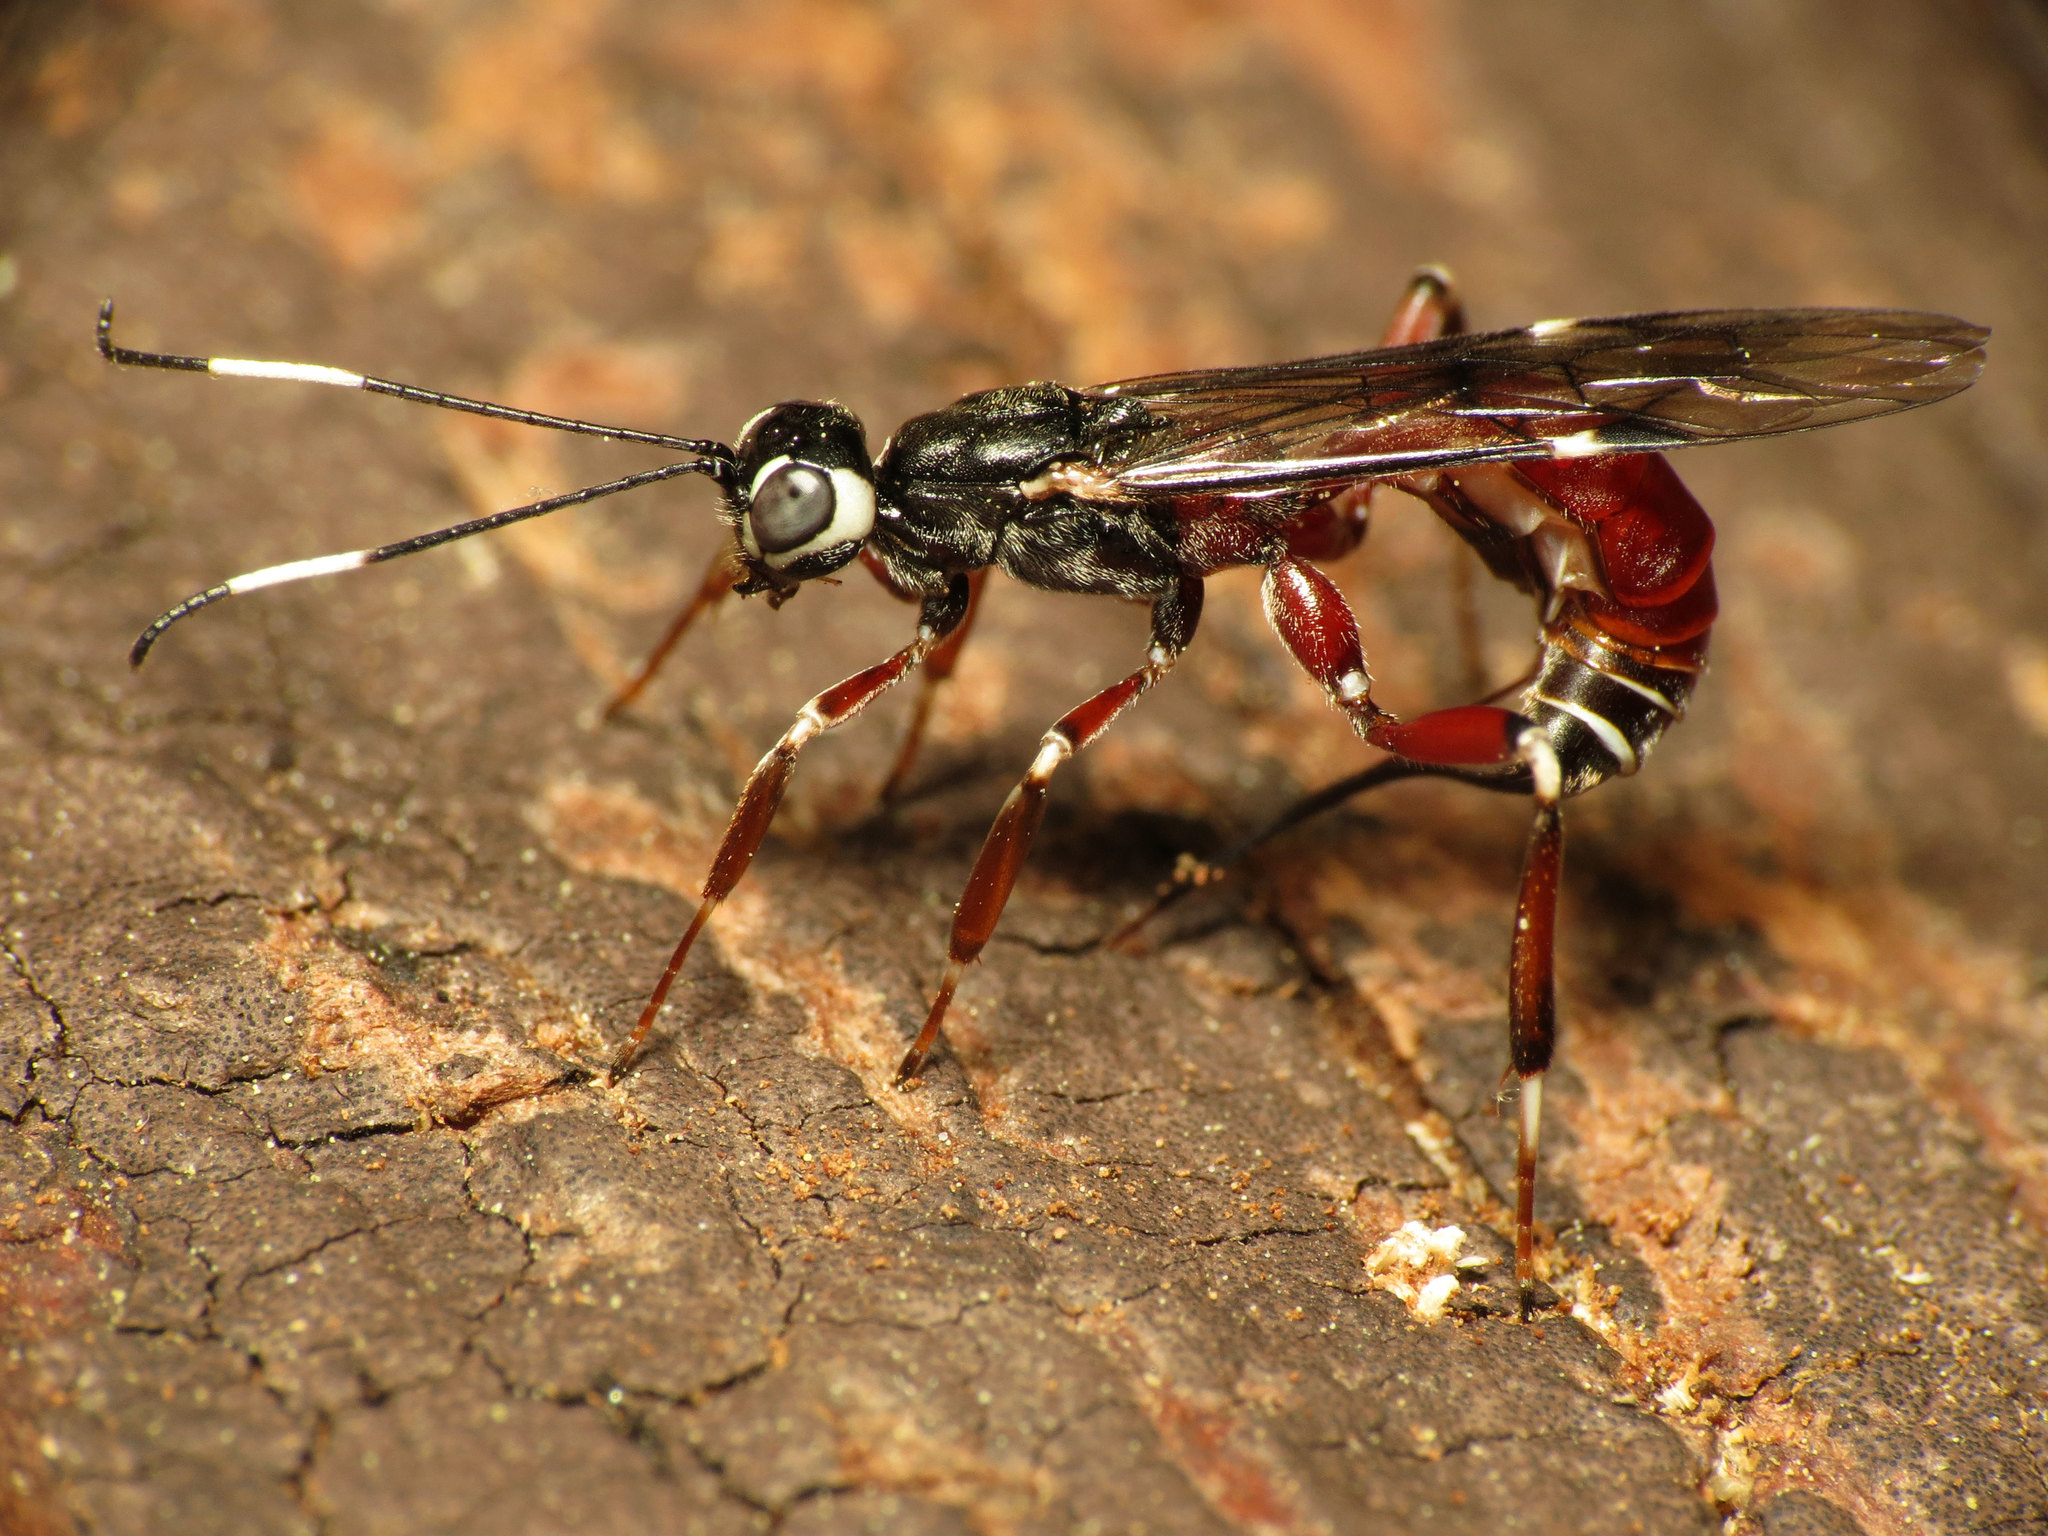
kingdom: Animalia
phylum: Arthropoda
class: Insecta
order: Hymenoptera
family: Ichneumonidae
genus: Xorides
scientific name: Xorides calidus
